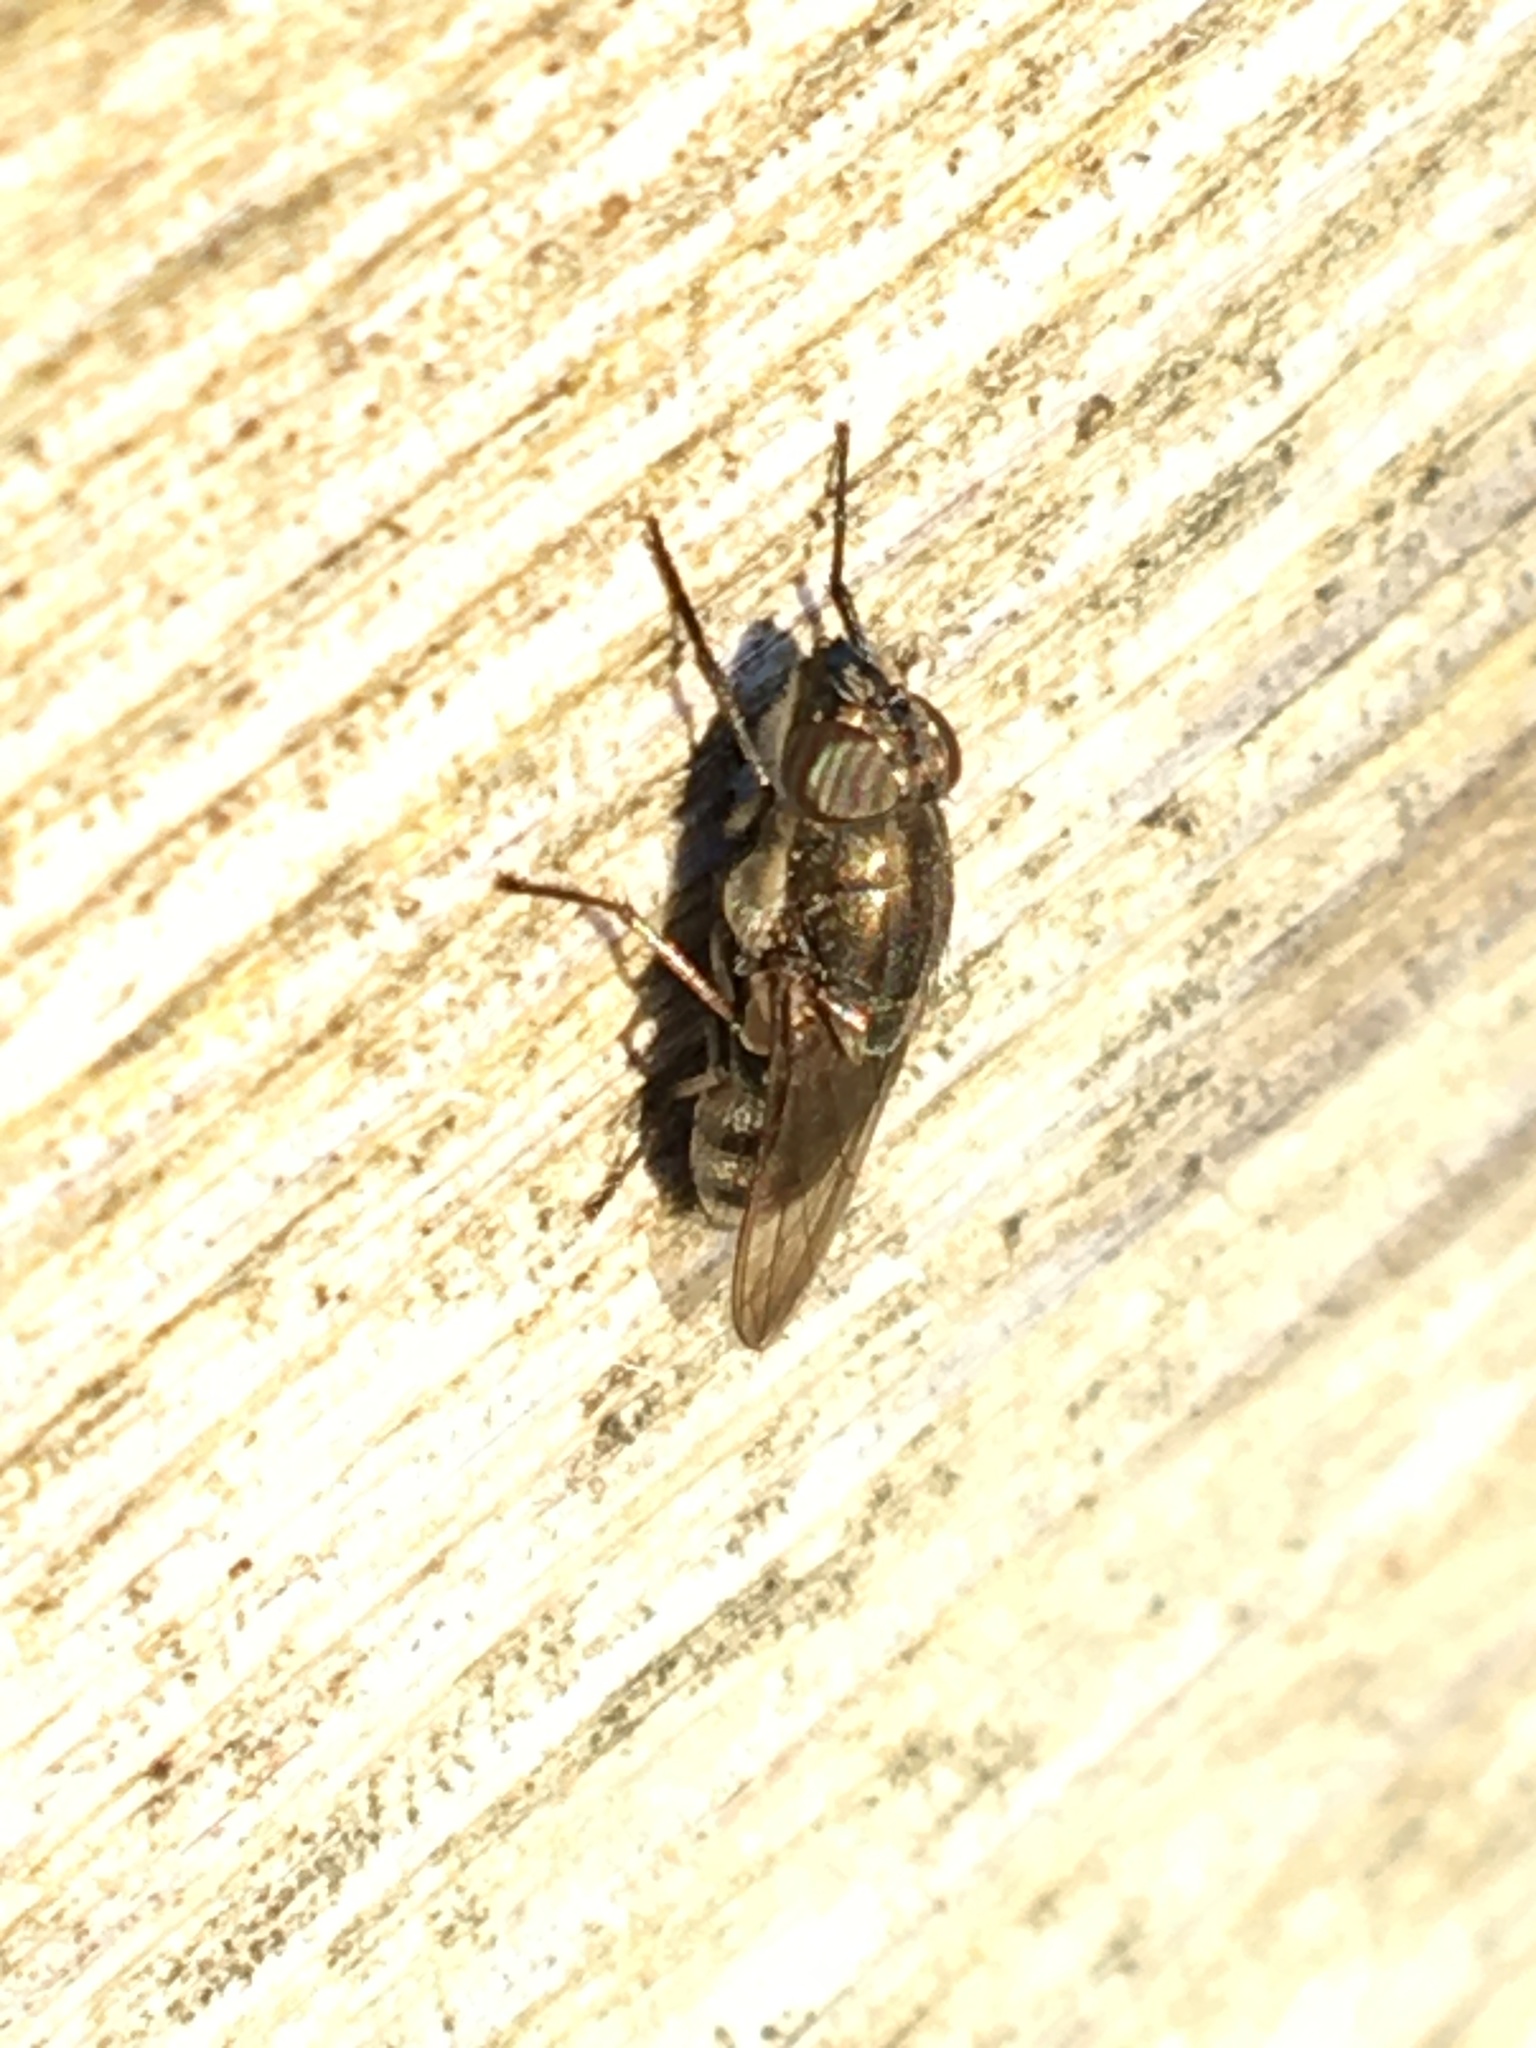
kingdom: Animalia
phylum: Arthropoda
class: Insecta
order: Diptera
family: Calliphoridae
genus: Stomorhina
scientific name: Stomorhina lunata
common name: Locust blowfly
